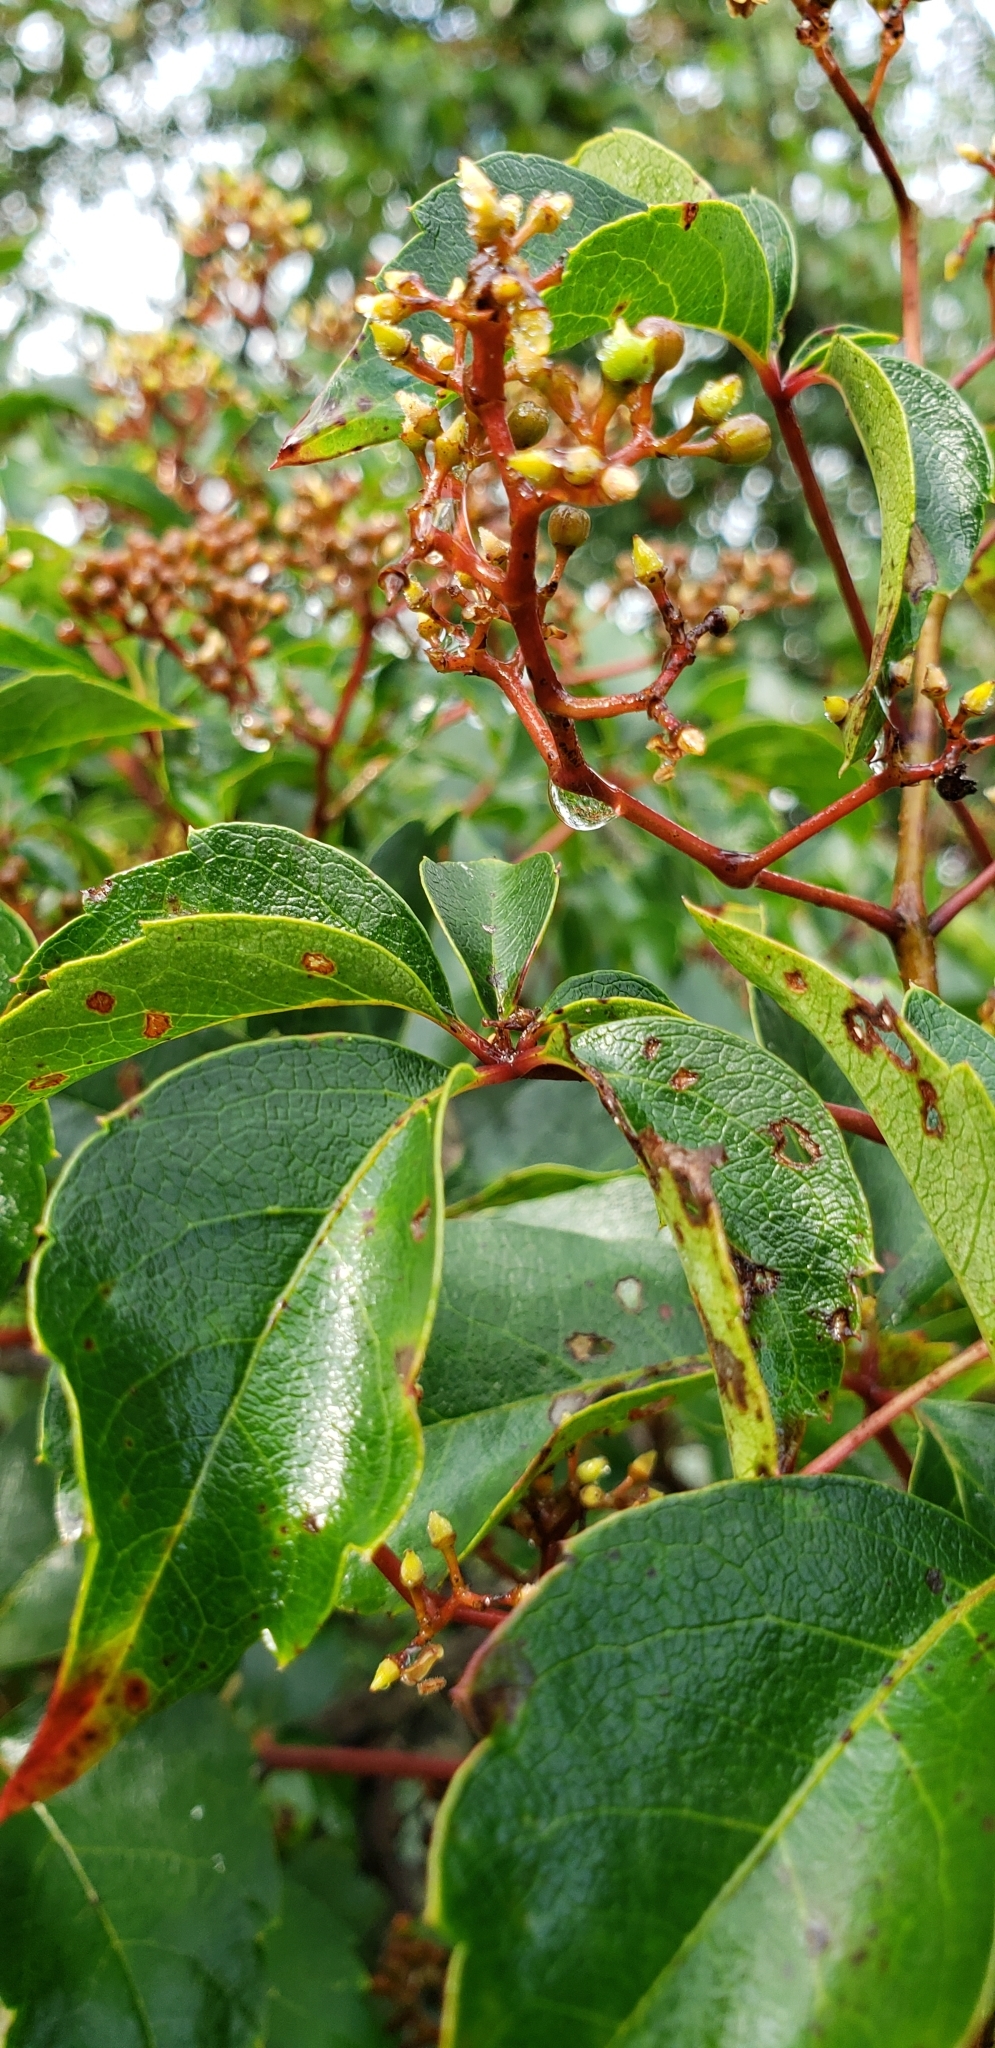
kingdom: Plantae
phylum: Tracheophyta
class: Magnoliopsida
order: Vitales
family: Vitaceae
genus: Parthenocissus
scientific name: Parthenocissus quinquefolia
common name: Virginia-creeper
